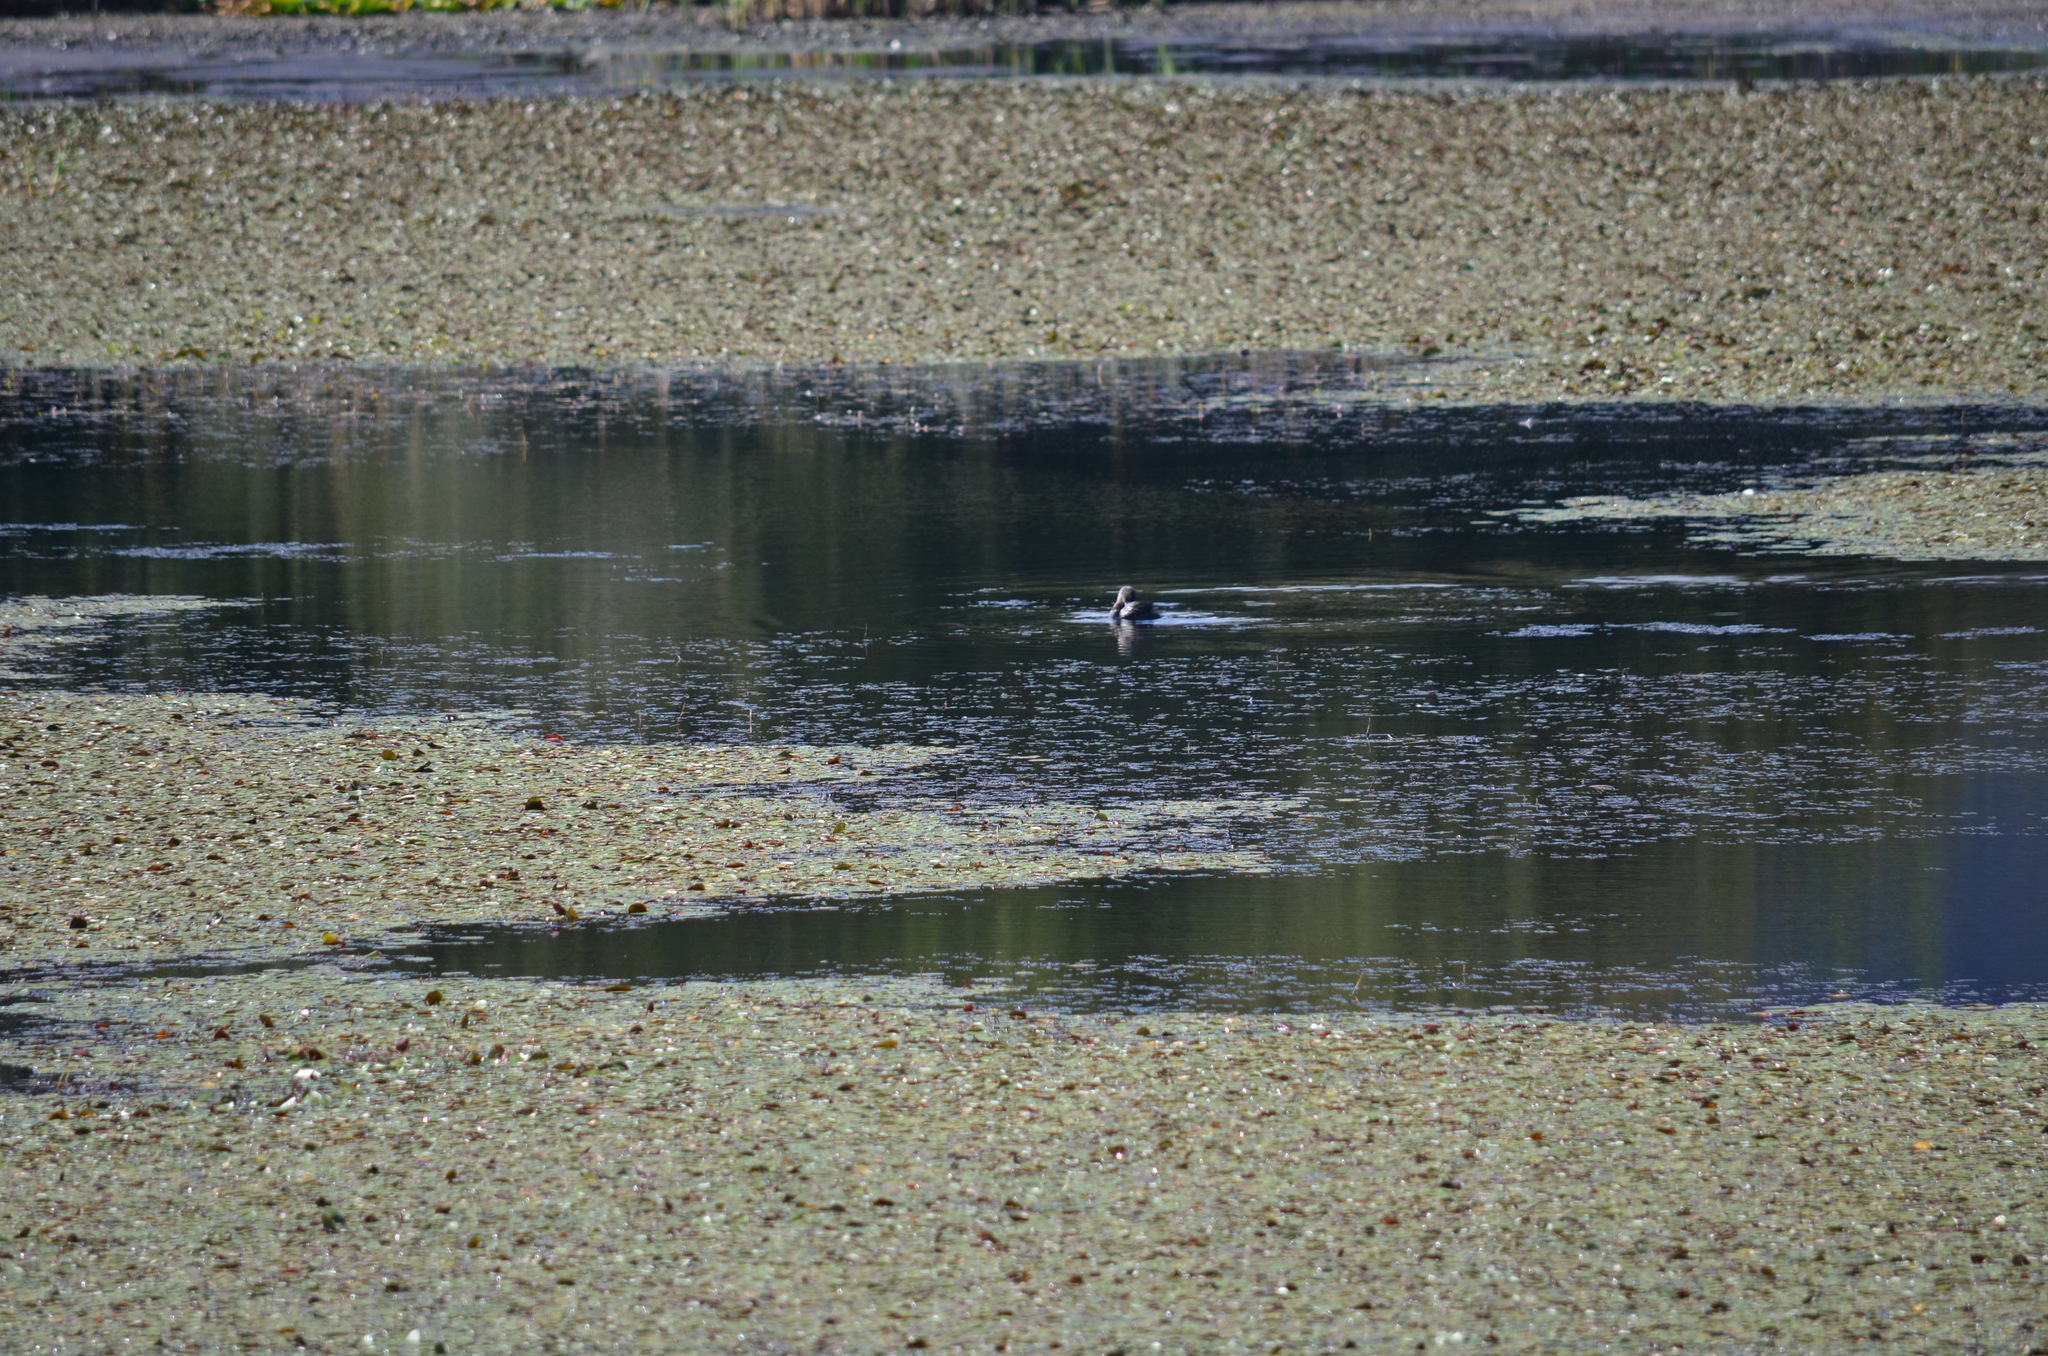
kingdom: Animalia
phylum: Chordata
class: Aves
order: Podicipediformes
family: Podicipedidae
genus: Podilymbus
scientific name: Podilymbus podiceps
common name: Pied-billed grebe
